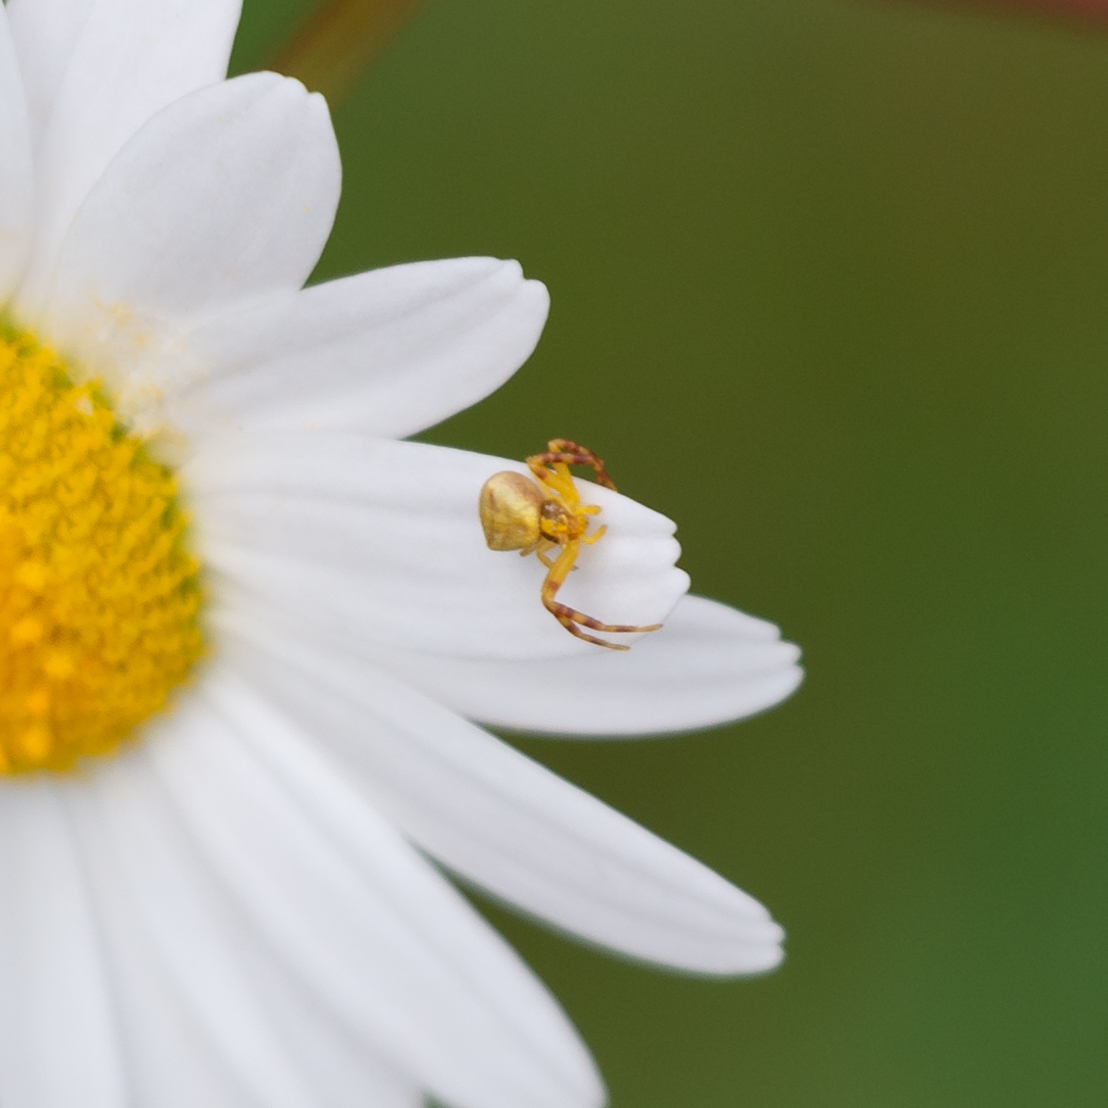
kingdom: Animalia
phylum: Arthropoda
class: Arachnida
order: Araneae
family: Thomisidae
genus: Thomisus
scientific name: Thomisus onustus
